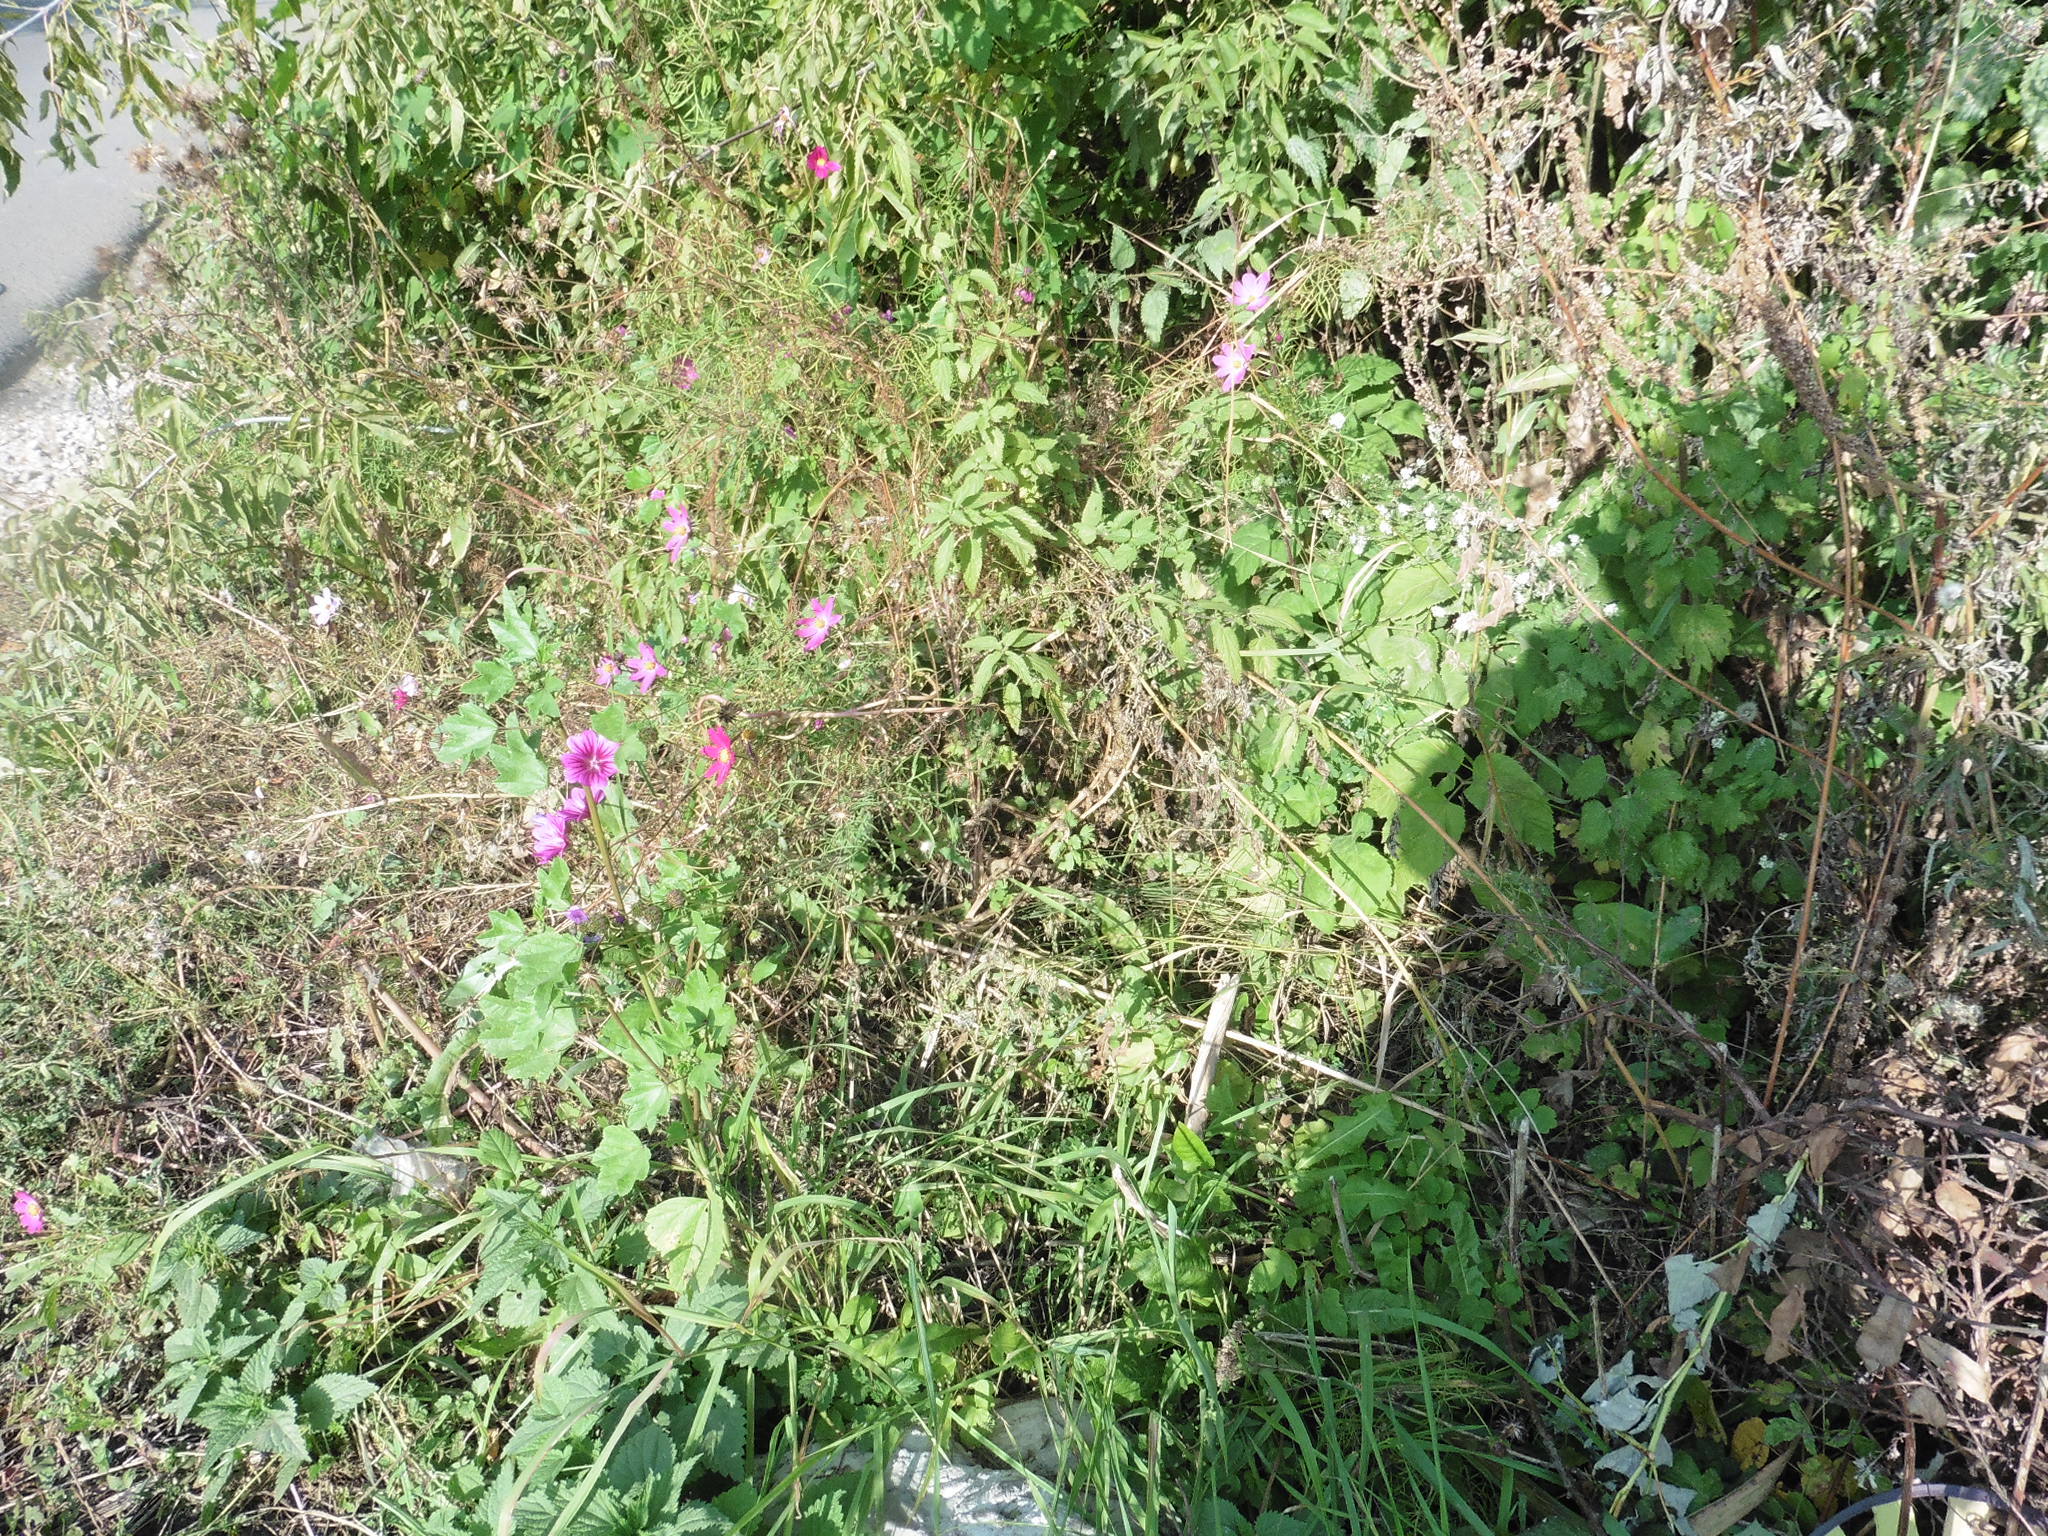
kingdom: Plantae
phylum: Tracheophyta
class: Magnoliopsida
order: Malvales
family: Malvaceae
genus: Malva
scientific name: Malva sylvestris
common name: Common mallow
